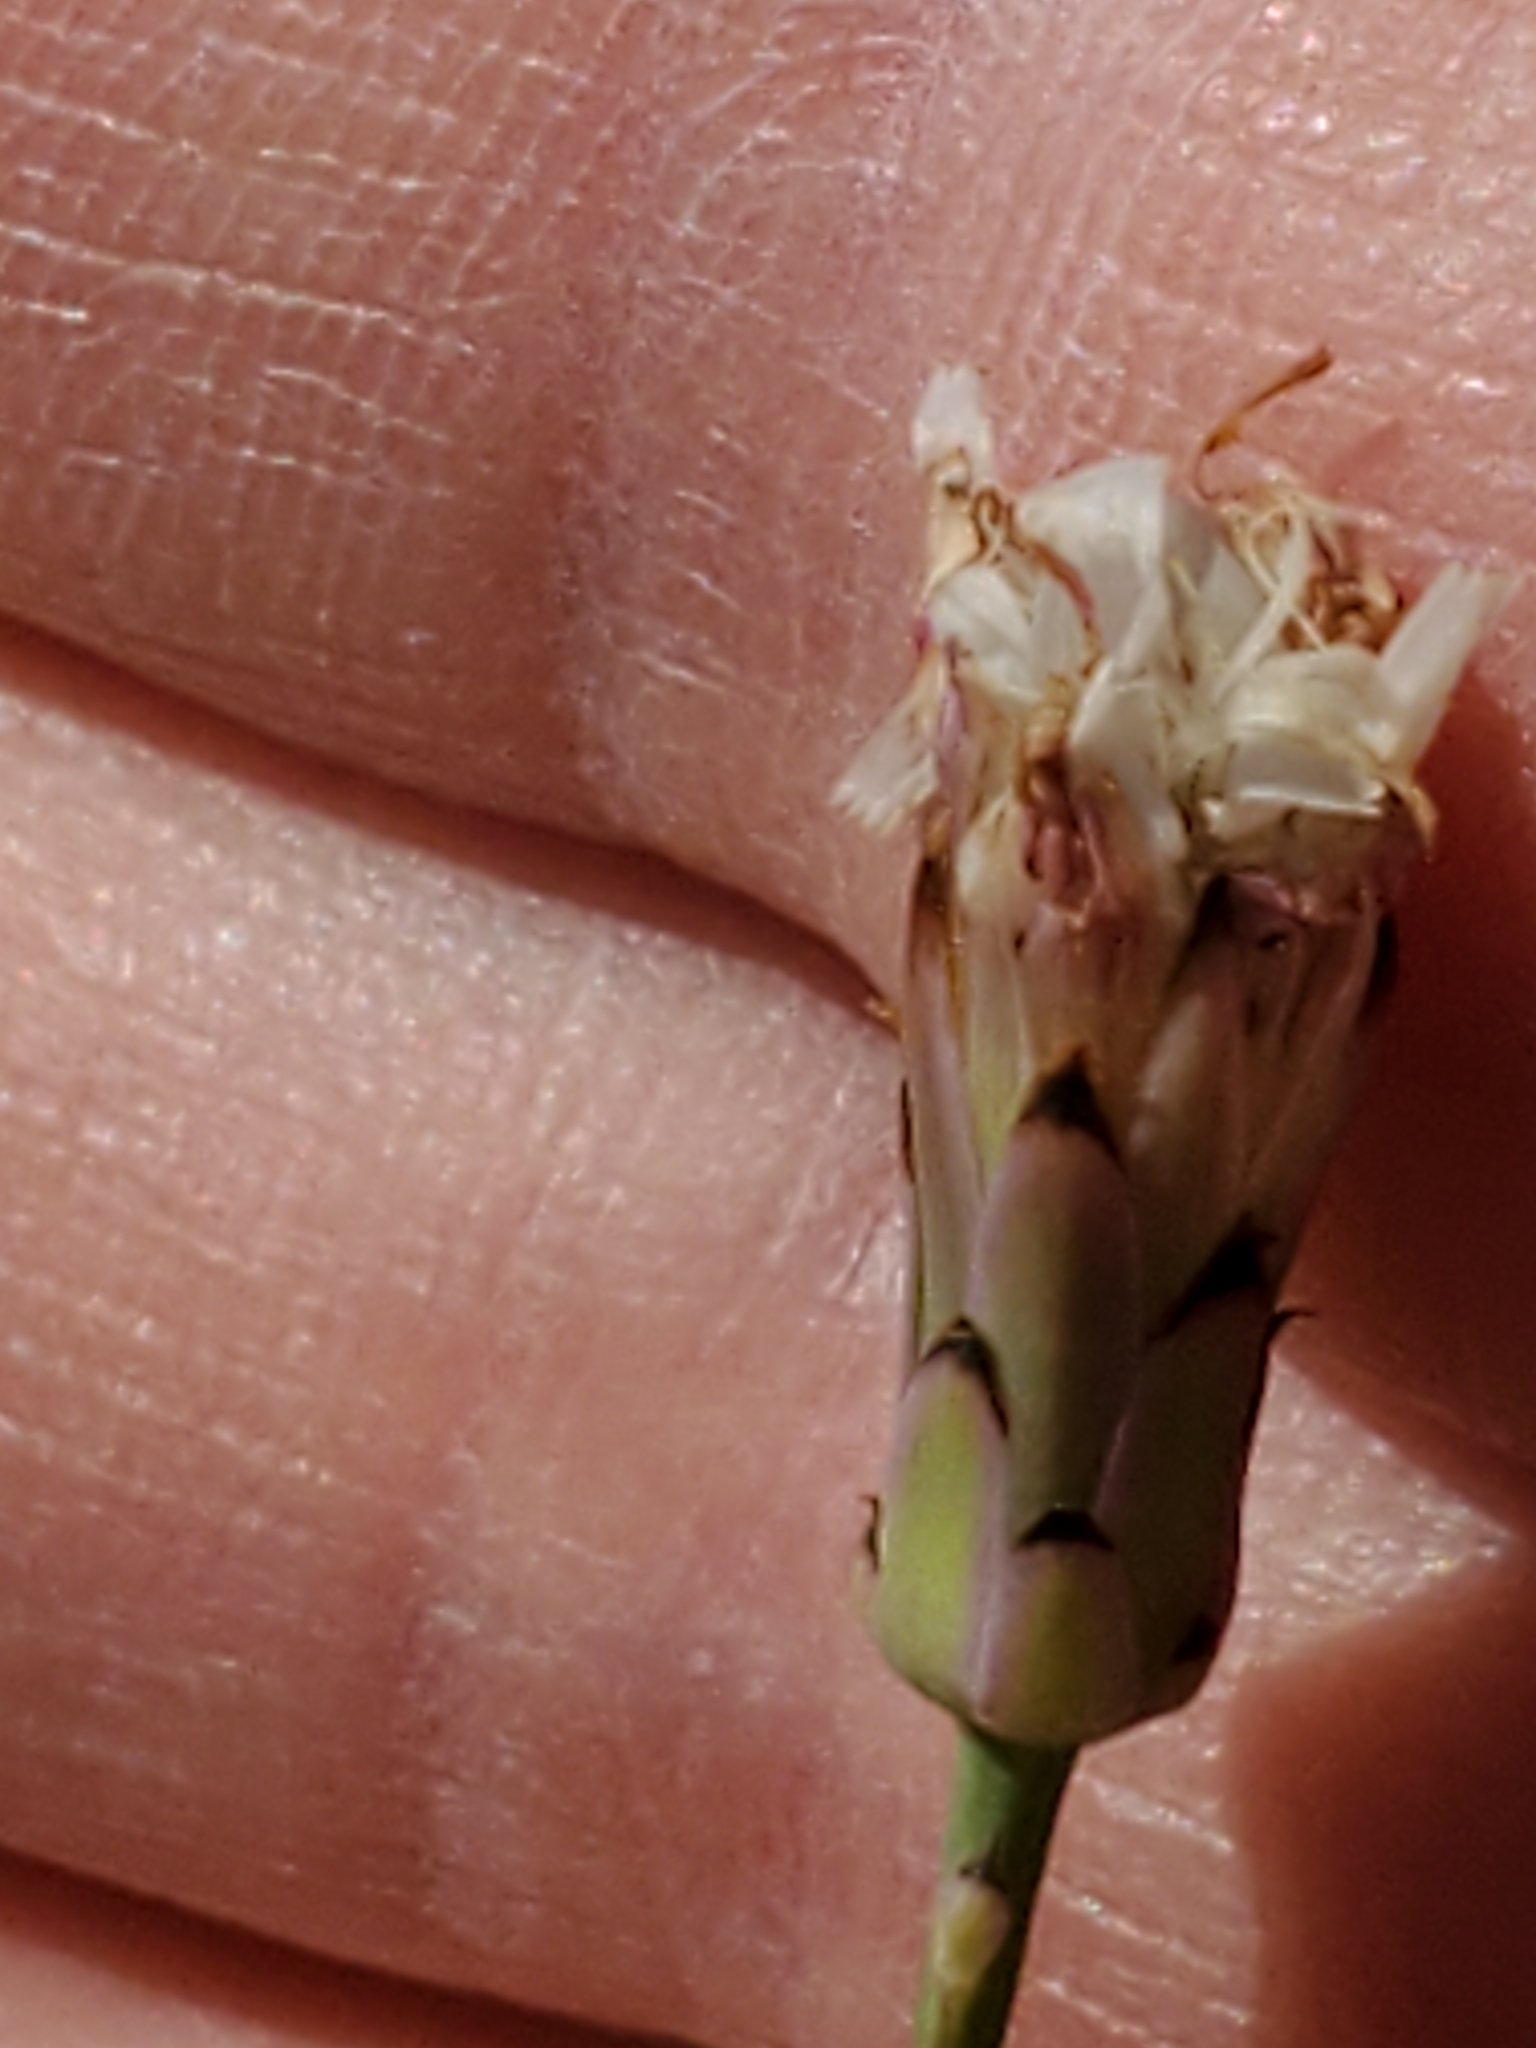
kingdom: Plantae
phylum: Tracheophyta
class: Magnoliopsida
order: Asterales
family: Asteraceae
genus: Pinaropappus
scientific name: Pinaropappus roseus
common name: Rock-lettuce
